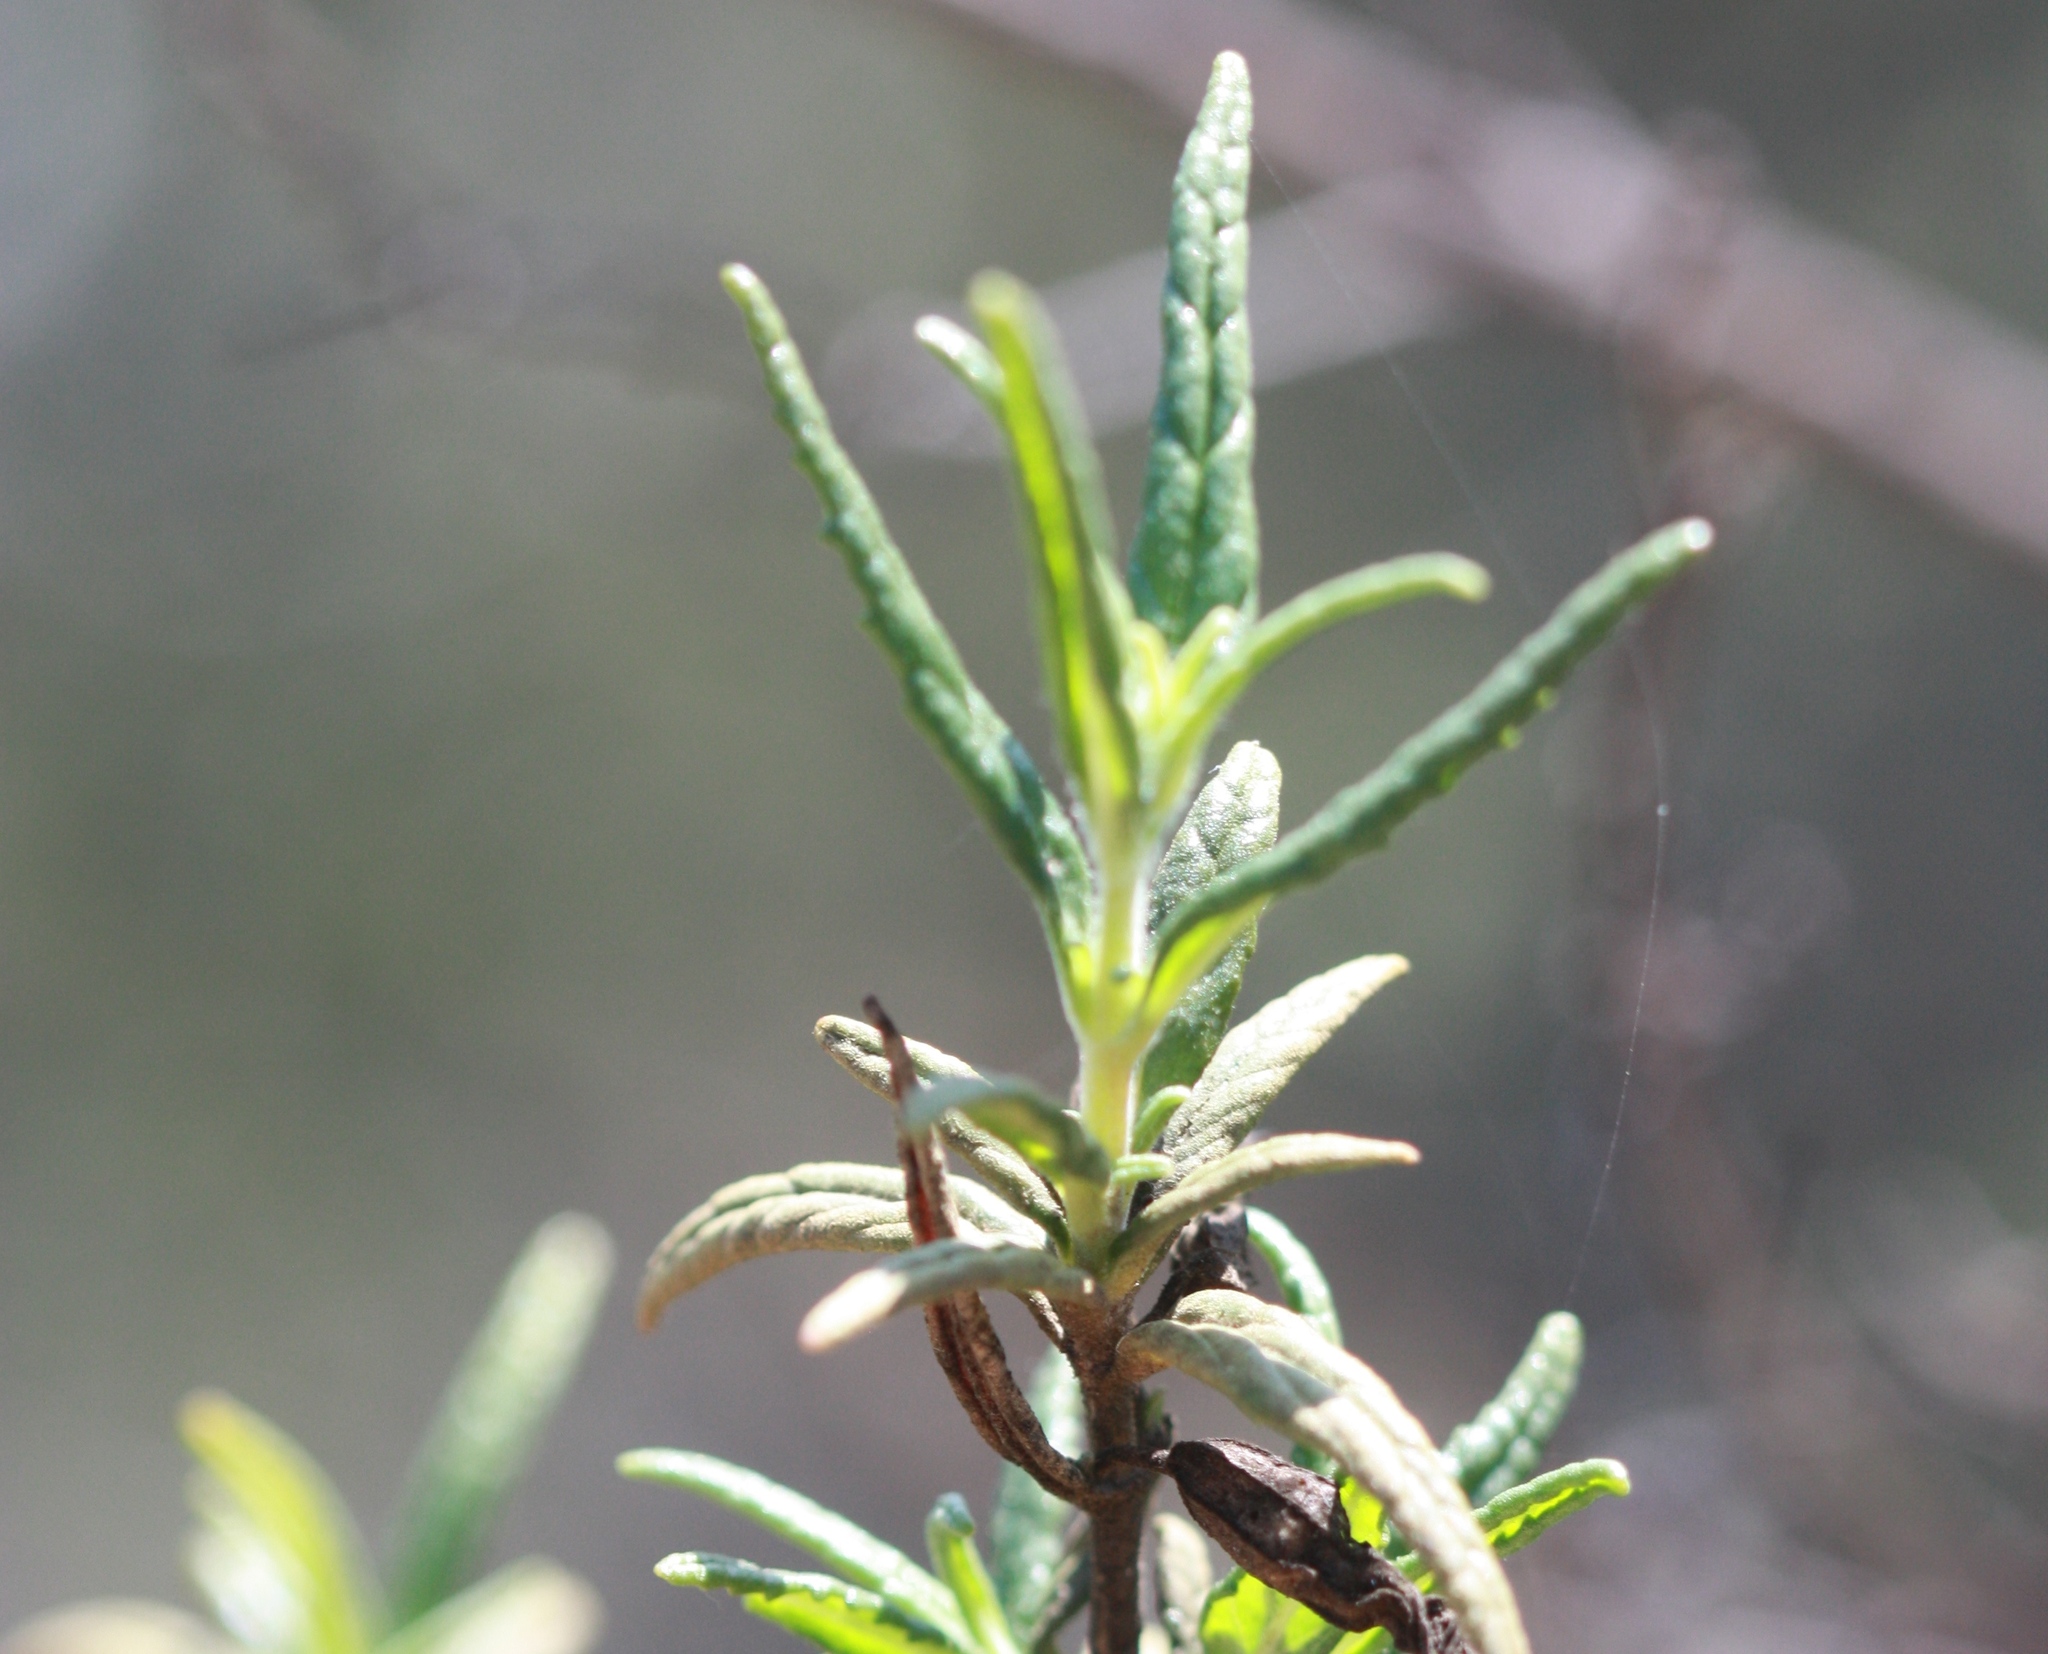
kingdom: Plantae
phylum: Tracheophyta
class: Magnoliopsida
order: Lamiales
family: Phrymaceae
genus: Diplacus
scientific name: Diplacus aurantiacus
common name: Bush monkey-flower
